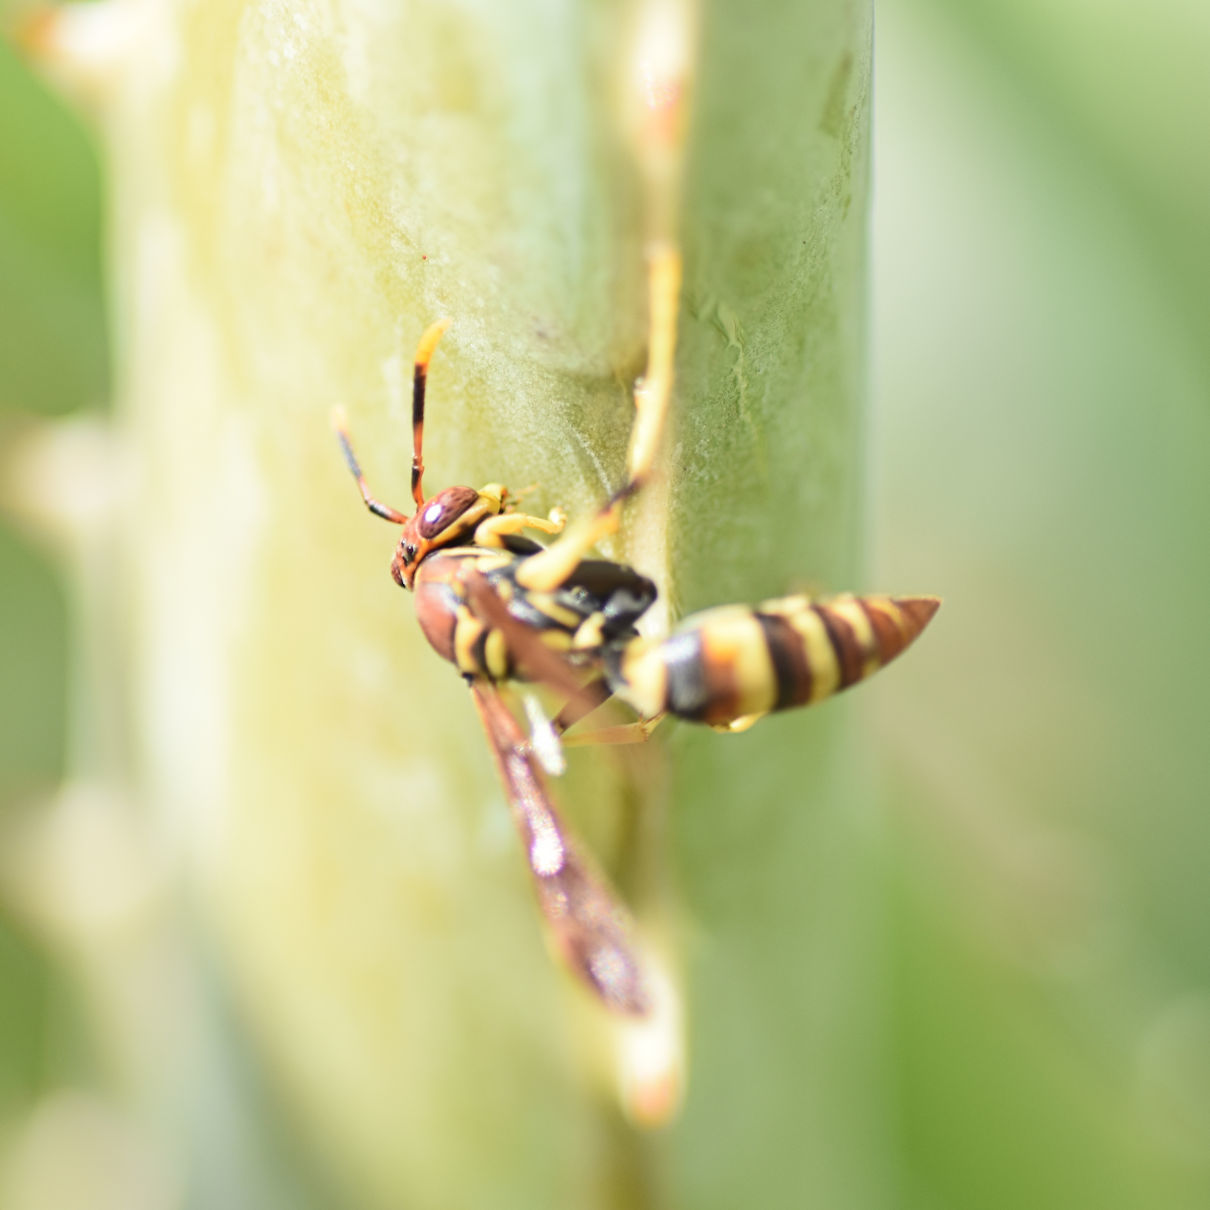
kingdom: Animalia
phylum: Arthropoda
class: Insecta
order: Hymenoptera
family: Eumenidae
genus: Polistes
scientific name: Polistes minor
